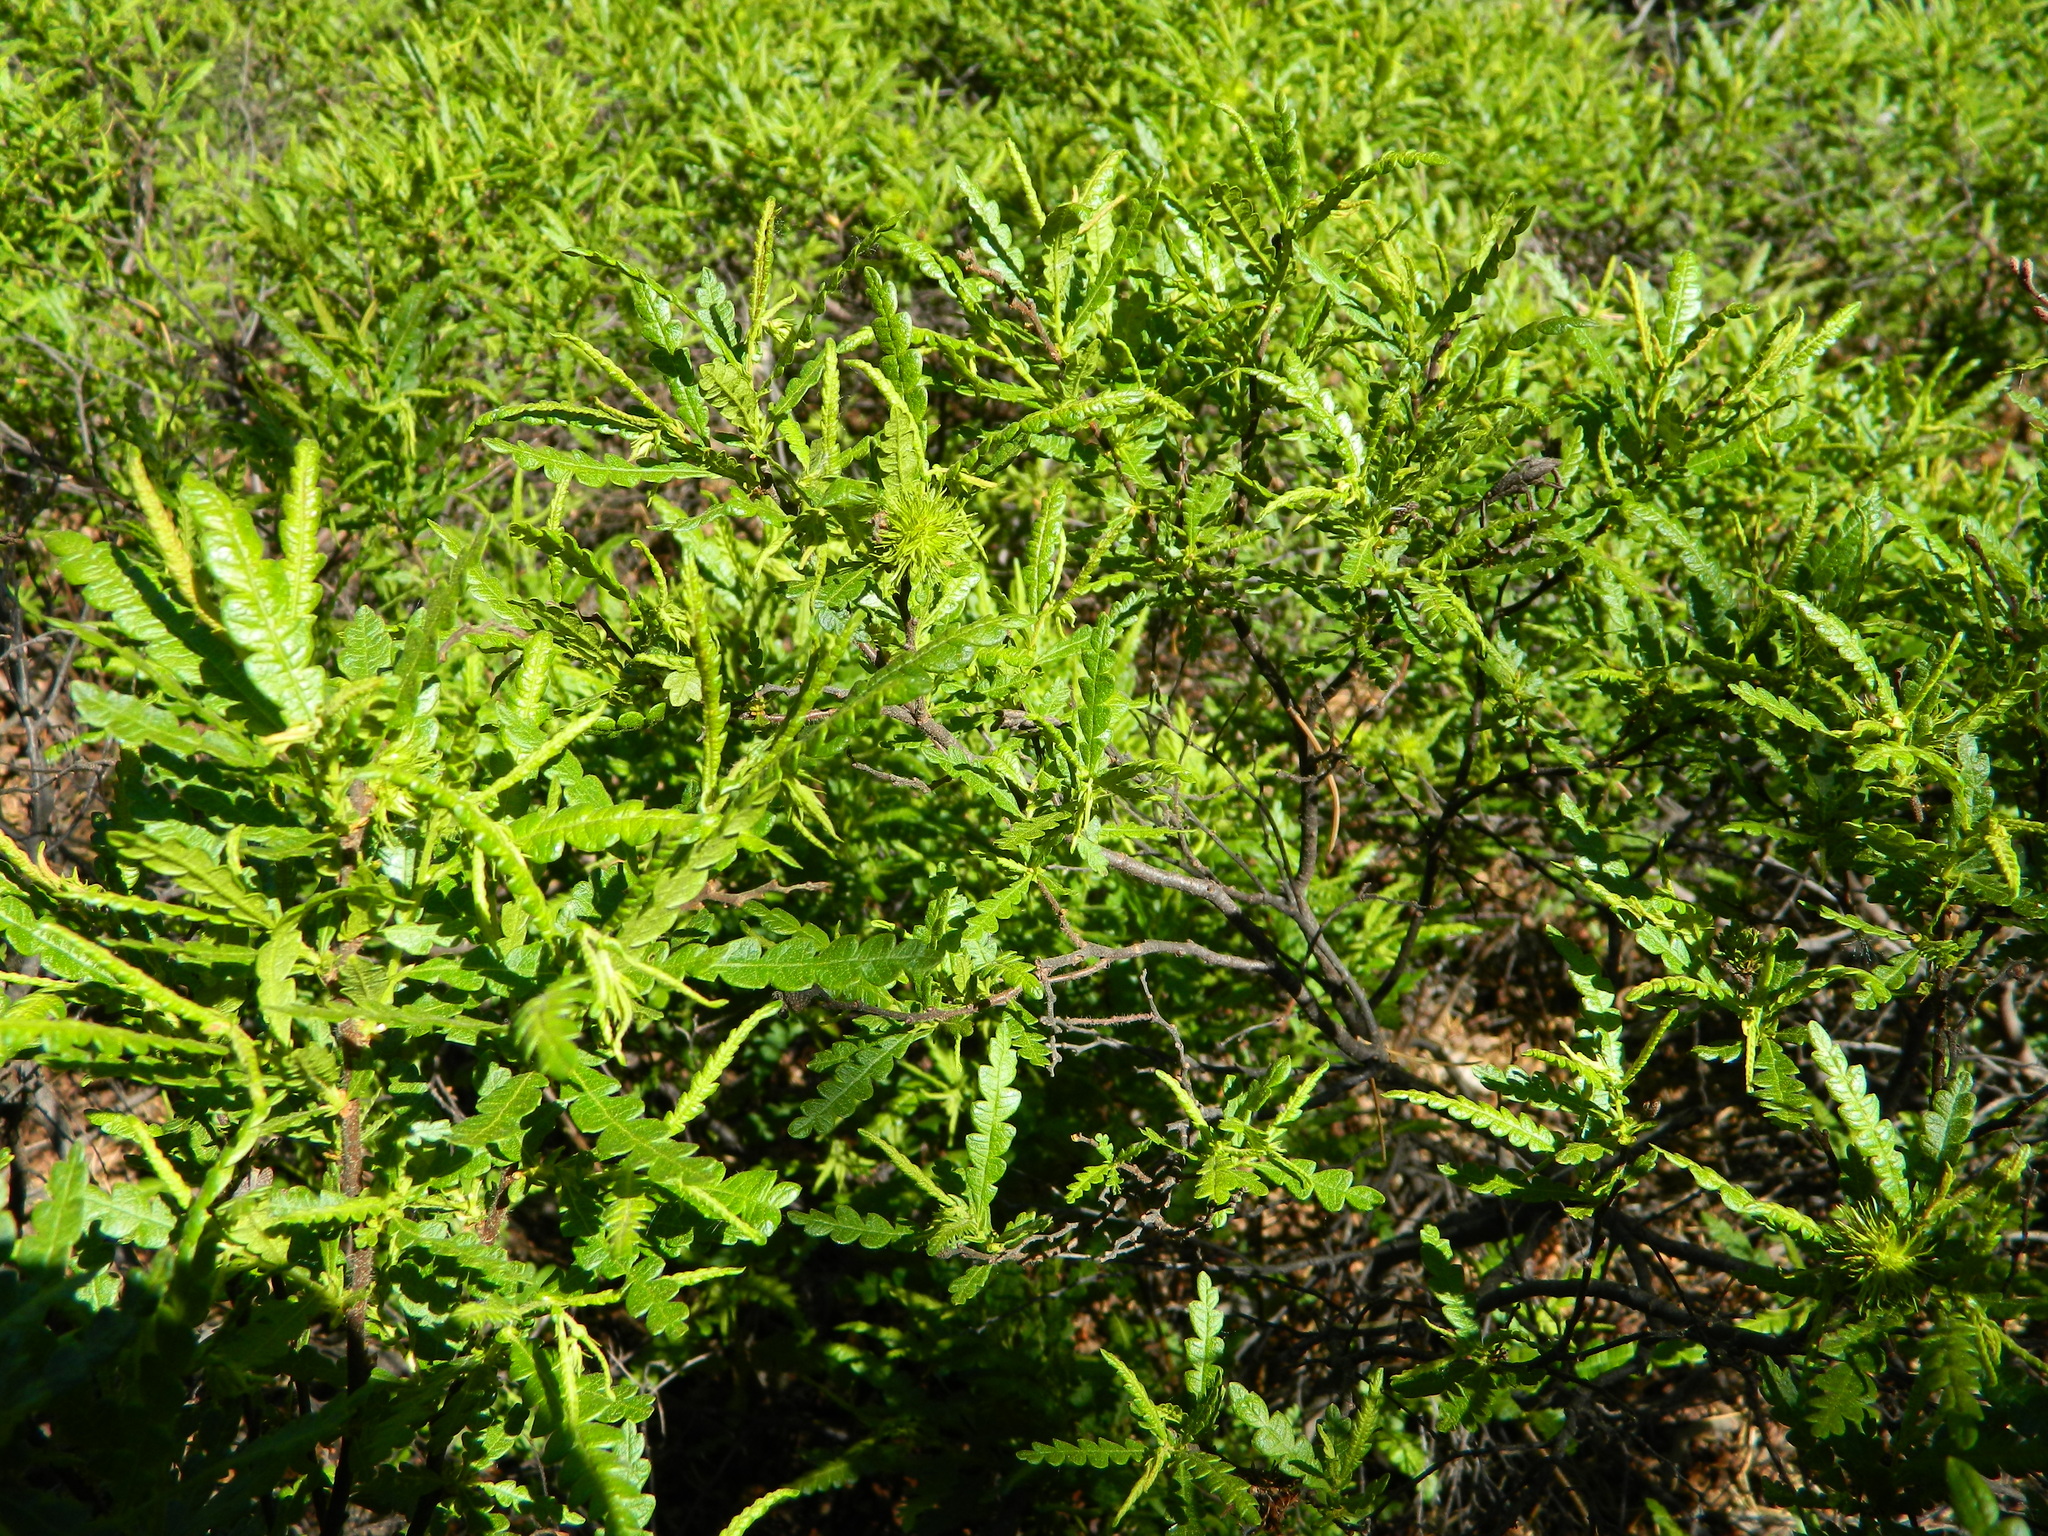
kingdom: Plantae
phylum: Tracheophyta
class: Magnoliopsida
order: Fagales
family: Myricaceae
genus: Comptonia
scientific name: Comptonia peregrina
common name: Sweet-fern
